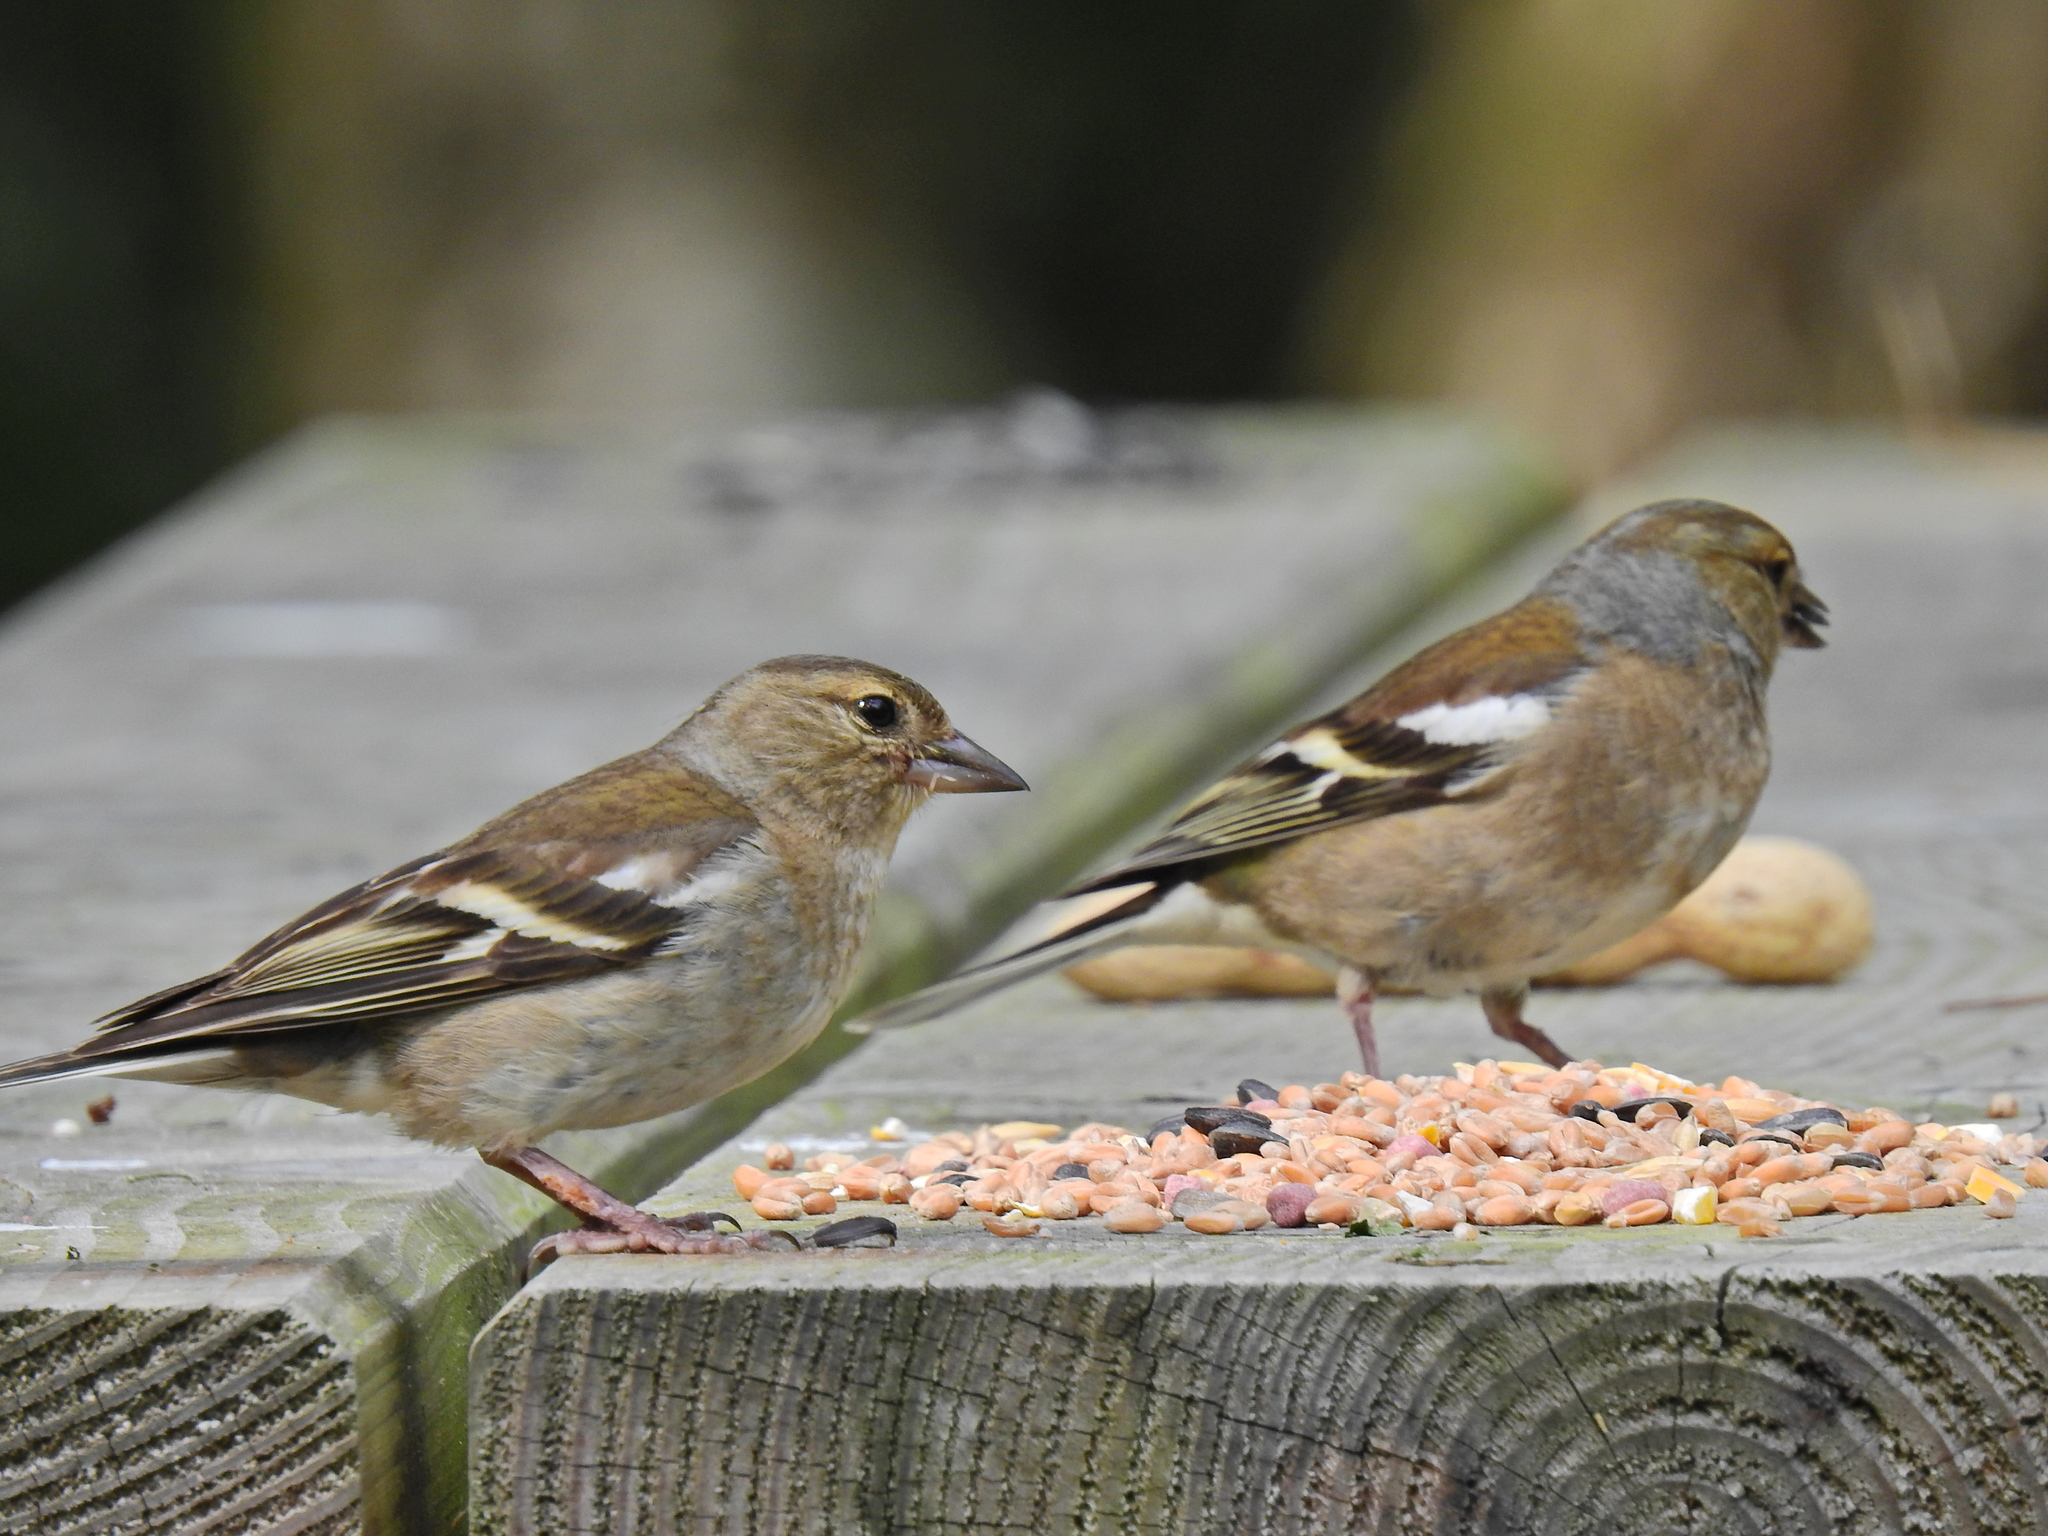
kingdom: Animalia
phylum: Chordata
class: Aves
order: Passeriformes
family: Fringillidae
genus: Fringilla
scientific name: Fringilla coelebs
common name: Common chaffinch
